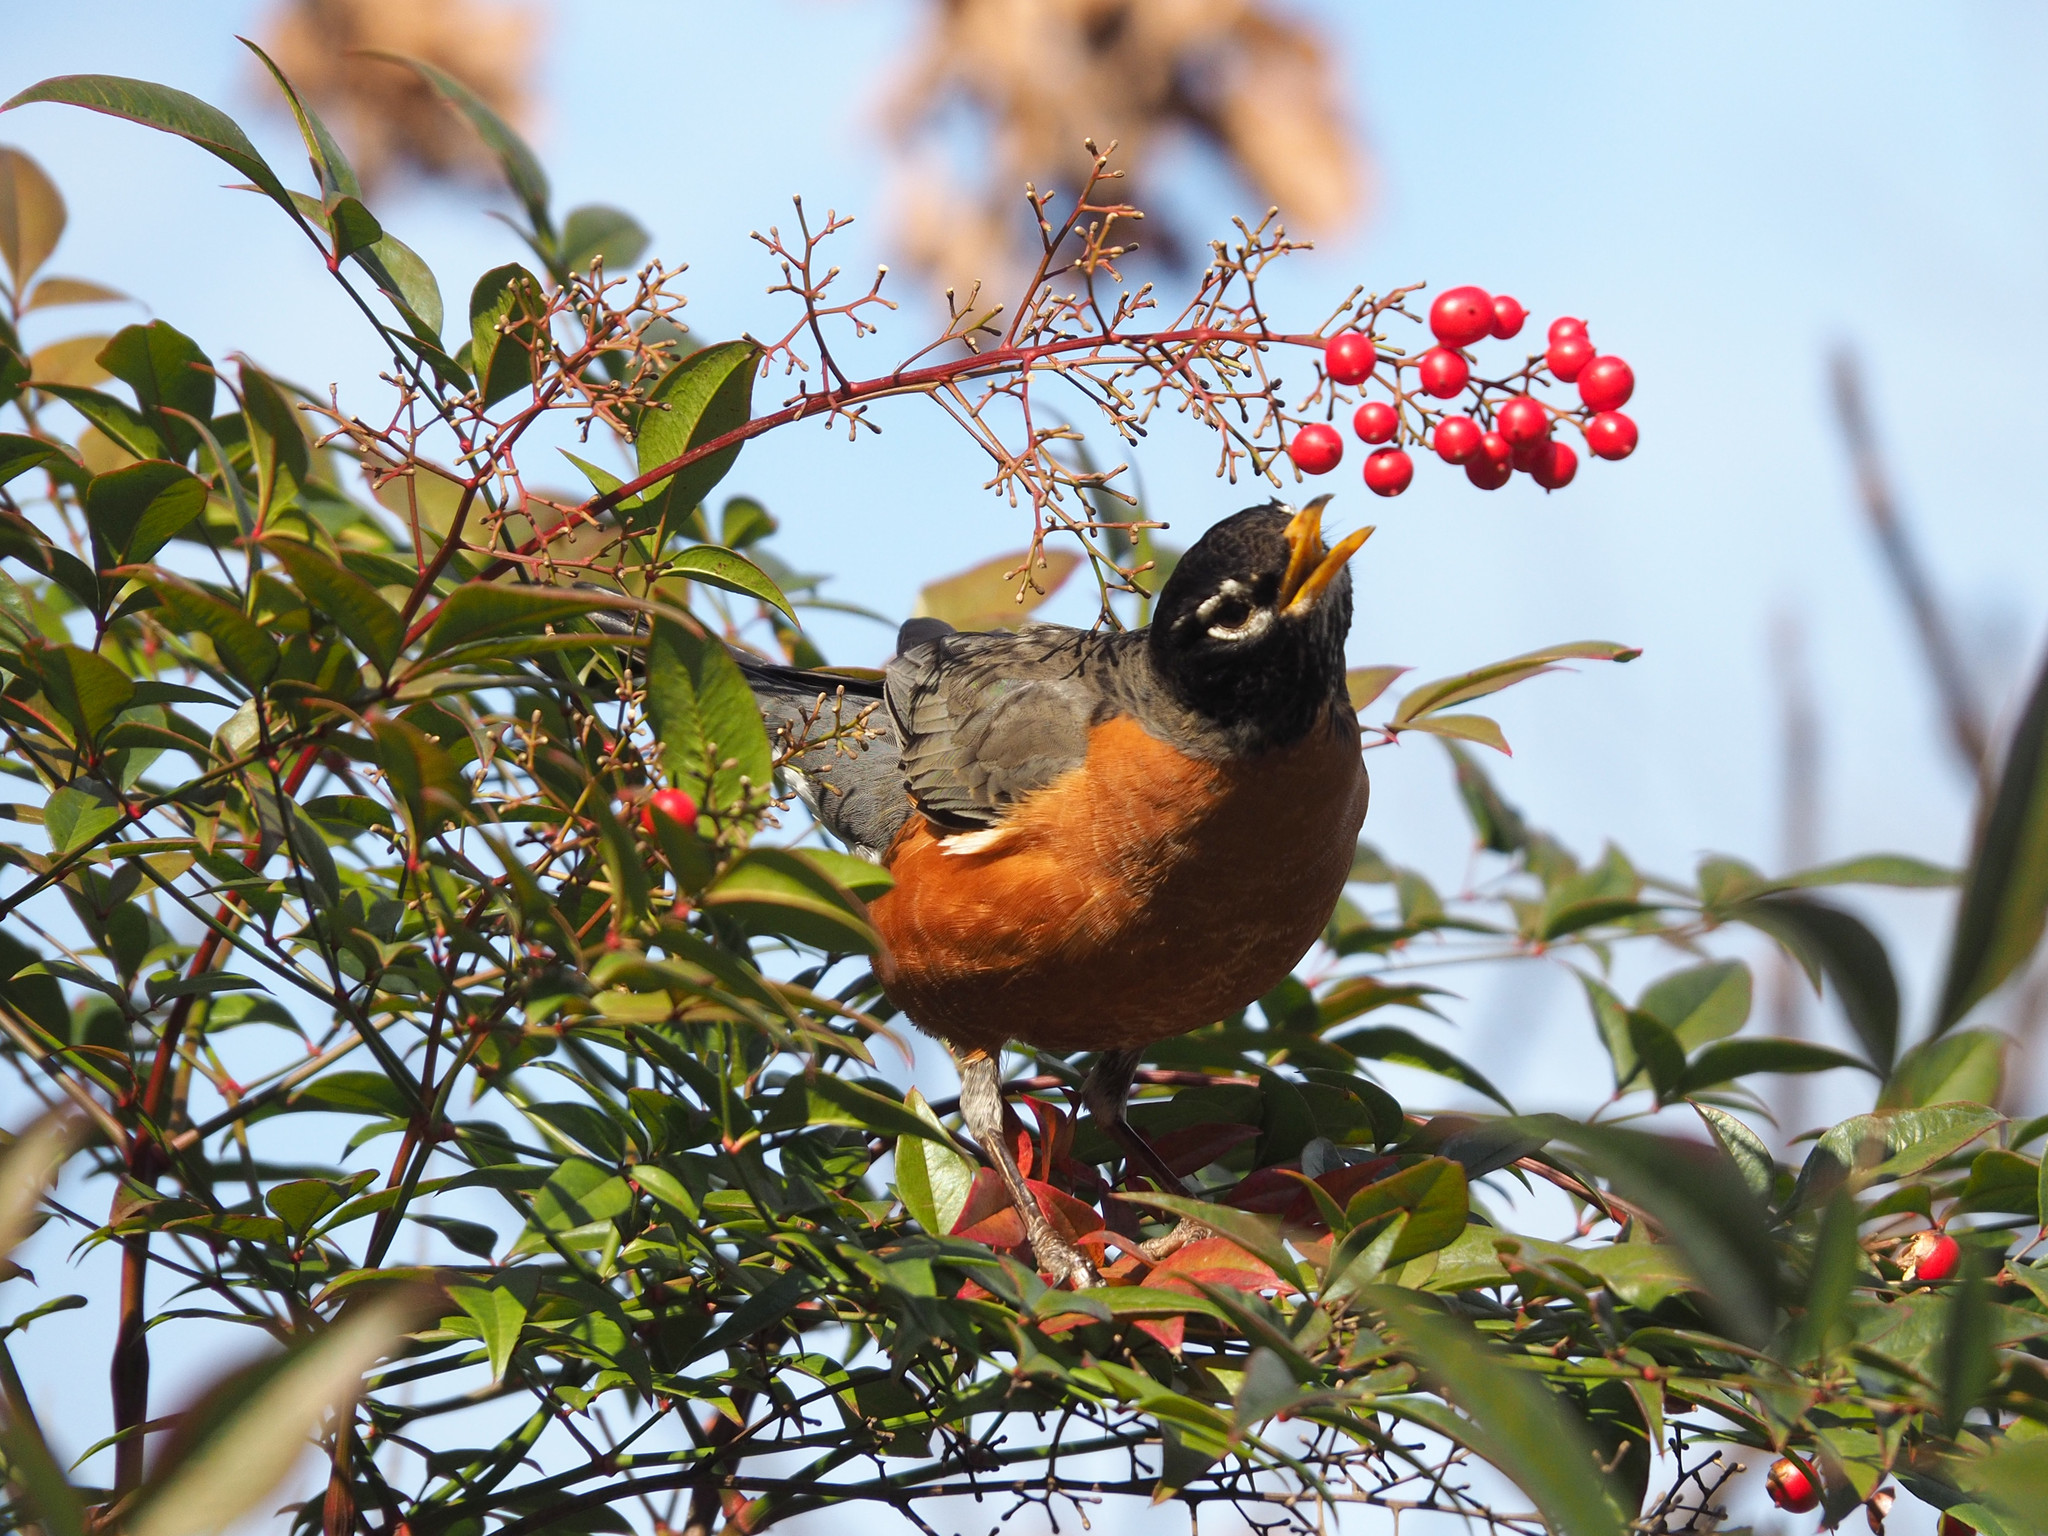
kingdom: Animalia
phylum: Chordata
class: Aves
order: Passeriformes
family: Turdidae
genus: Turdus
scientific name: Turdus migratorius
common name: American robin
